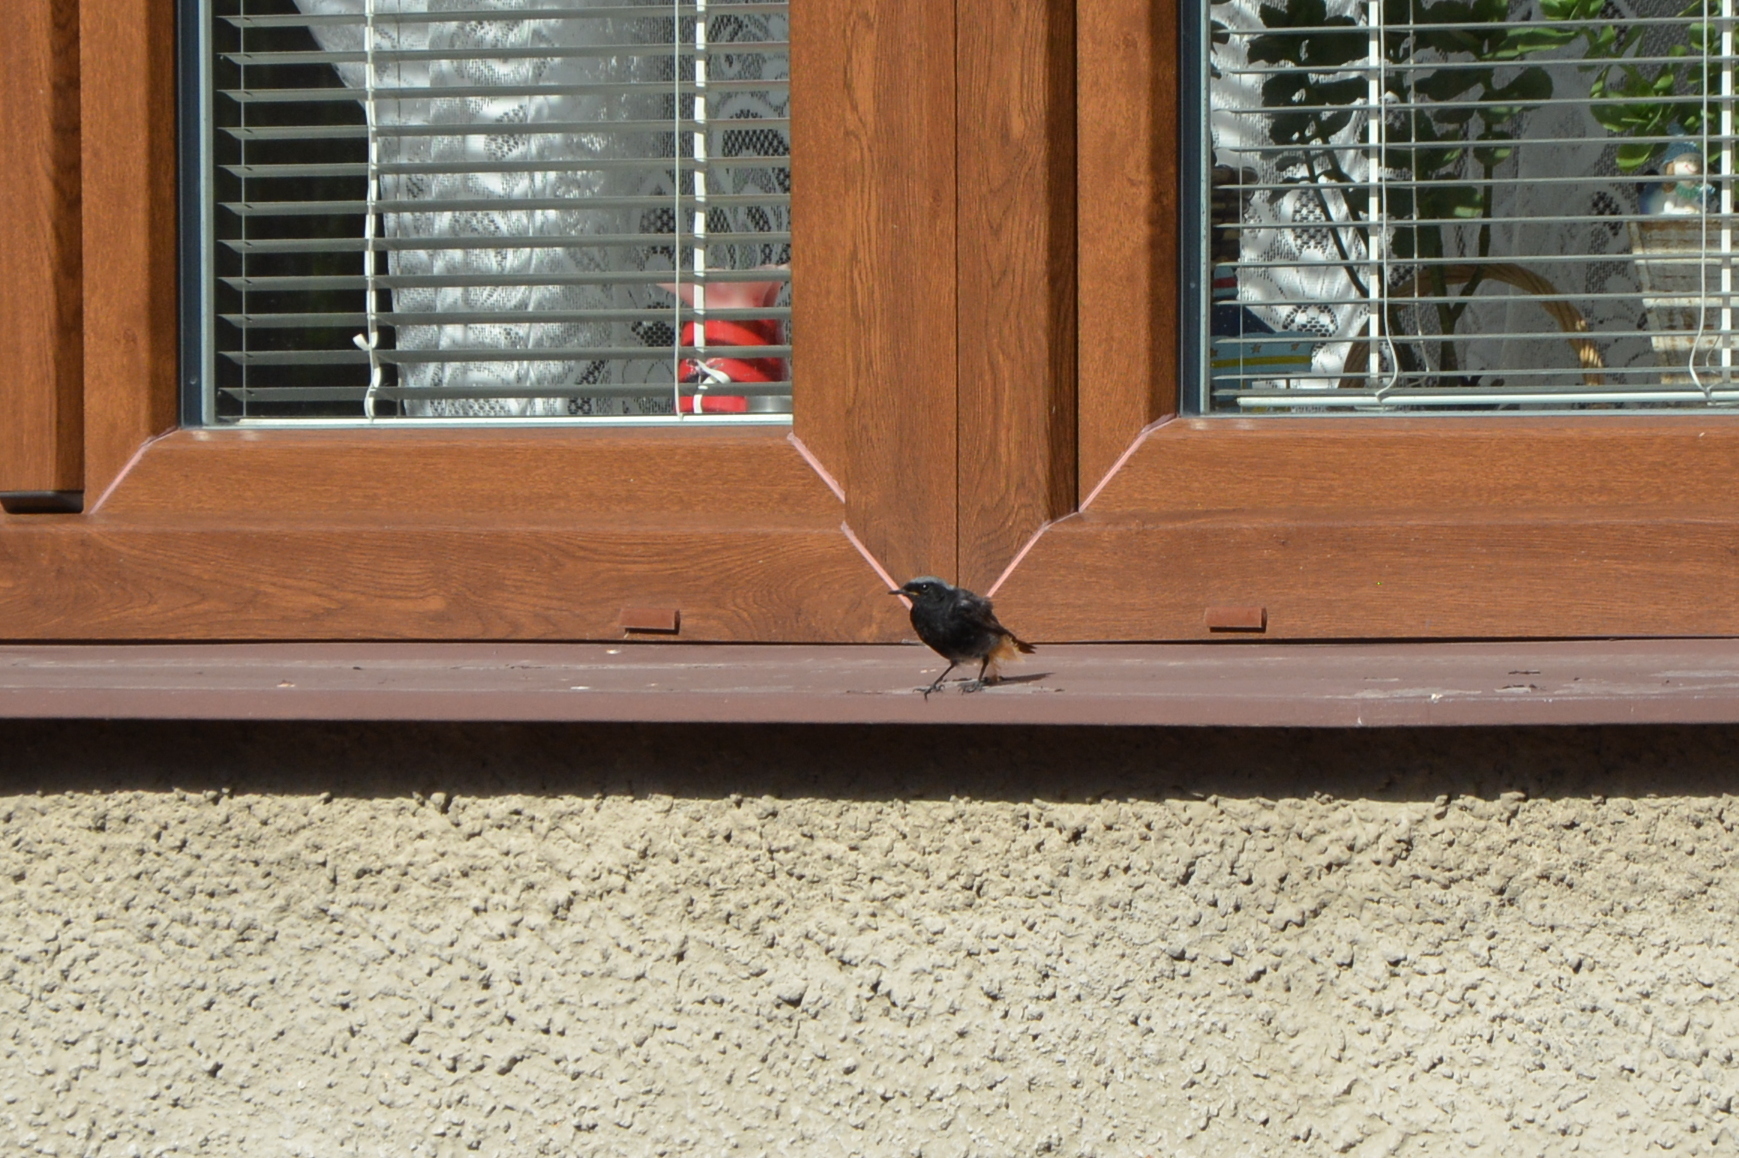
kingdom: Animalia
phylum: Chordata
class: Aves
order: Passeriformes
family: Muscicapidae
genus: Phoenicurus
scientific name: Phoenicurus ochruros
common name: Black redstart
